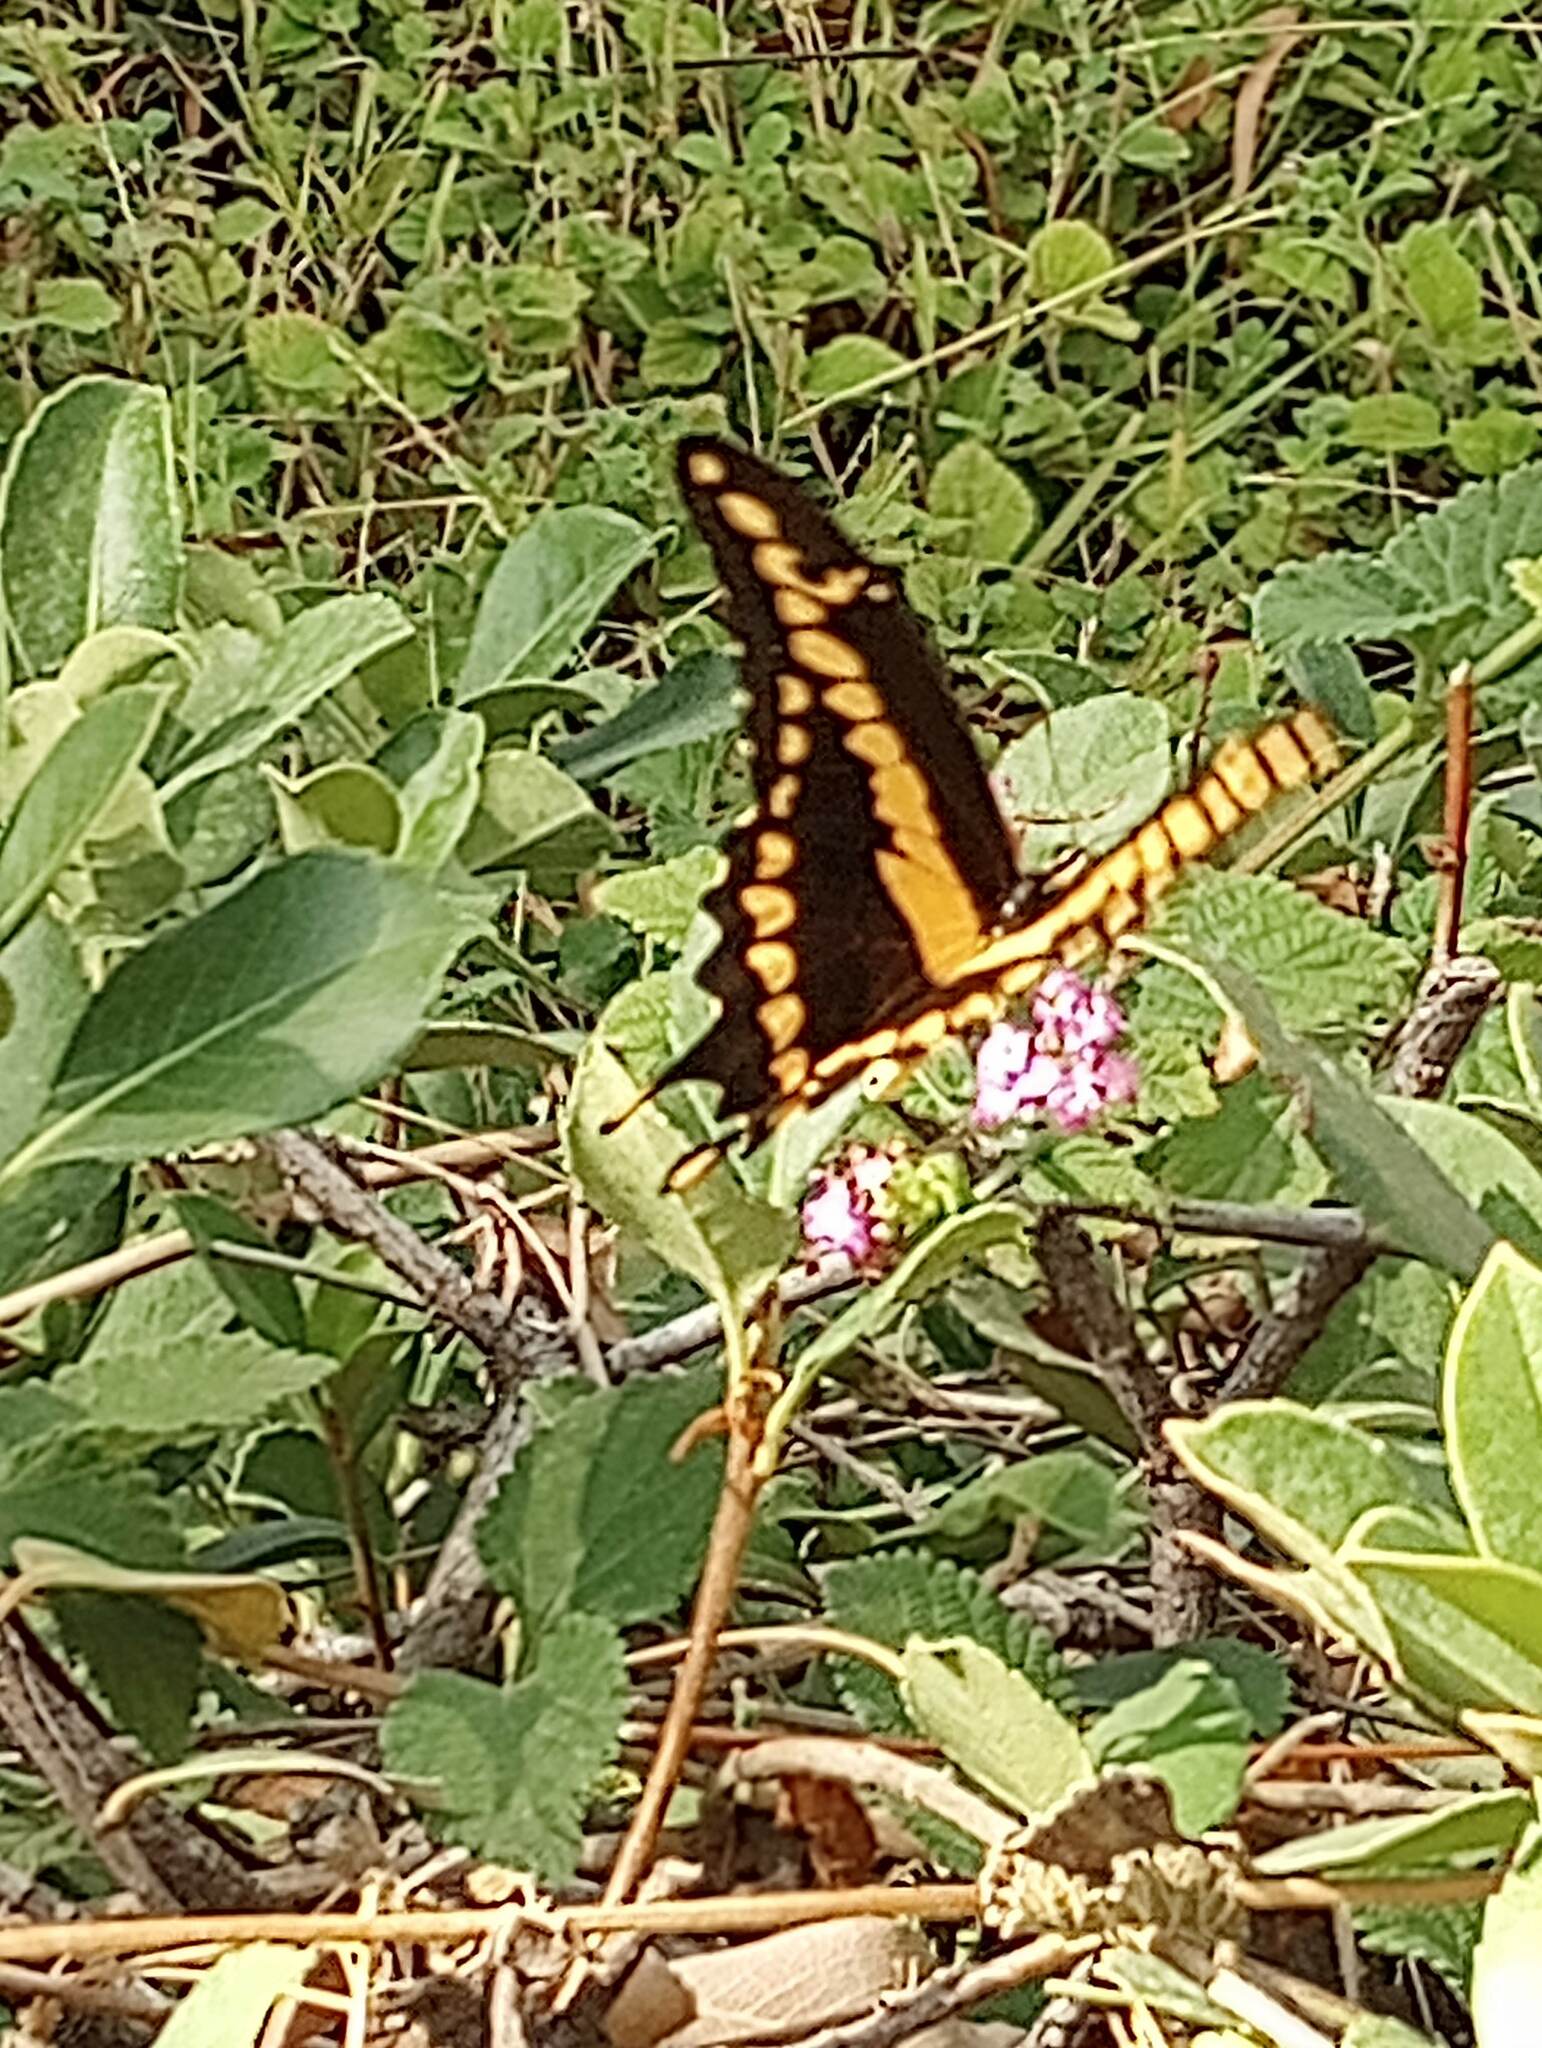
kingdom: Animalia
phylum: Arthropoda
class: Insecta
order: Lepidoptera
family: Papilionidae
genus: Papilio
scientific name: Papilio rumiko
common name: Western giant swallowtail
